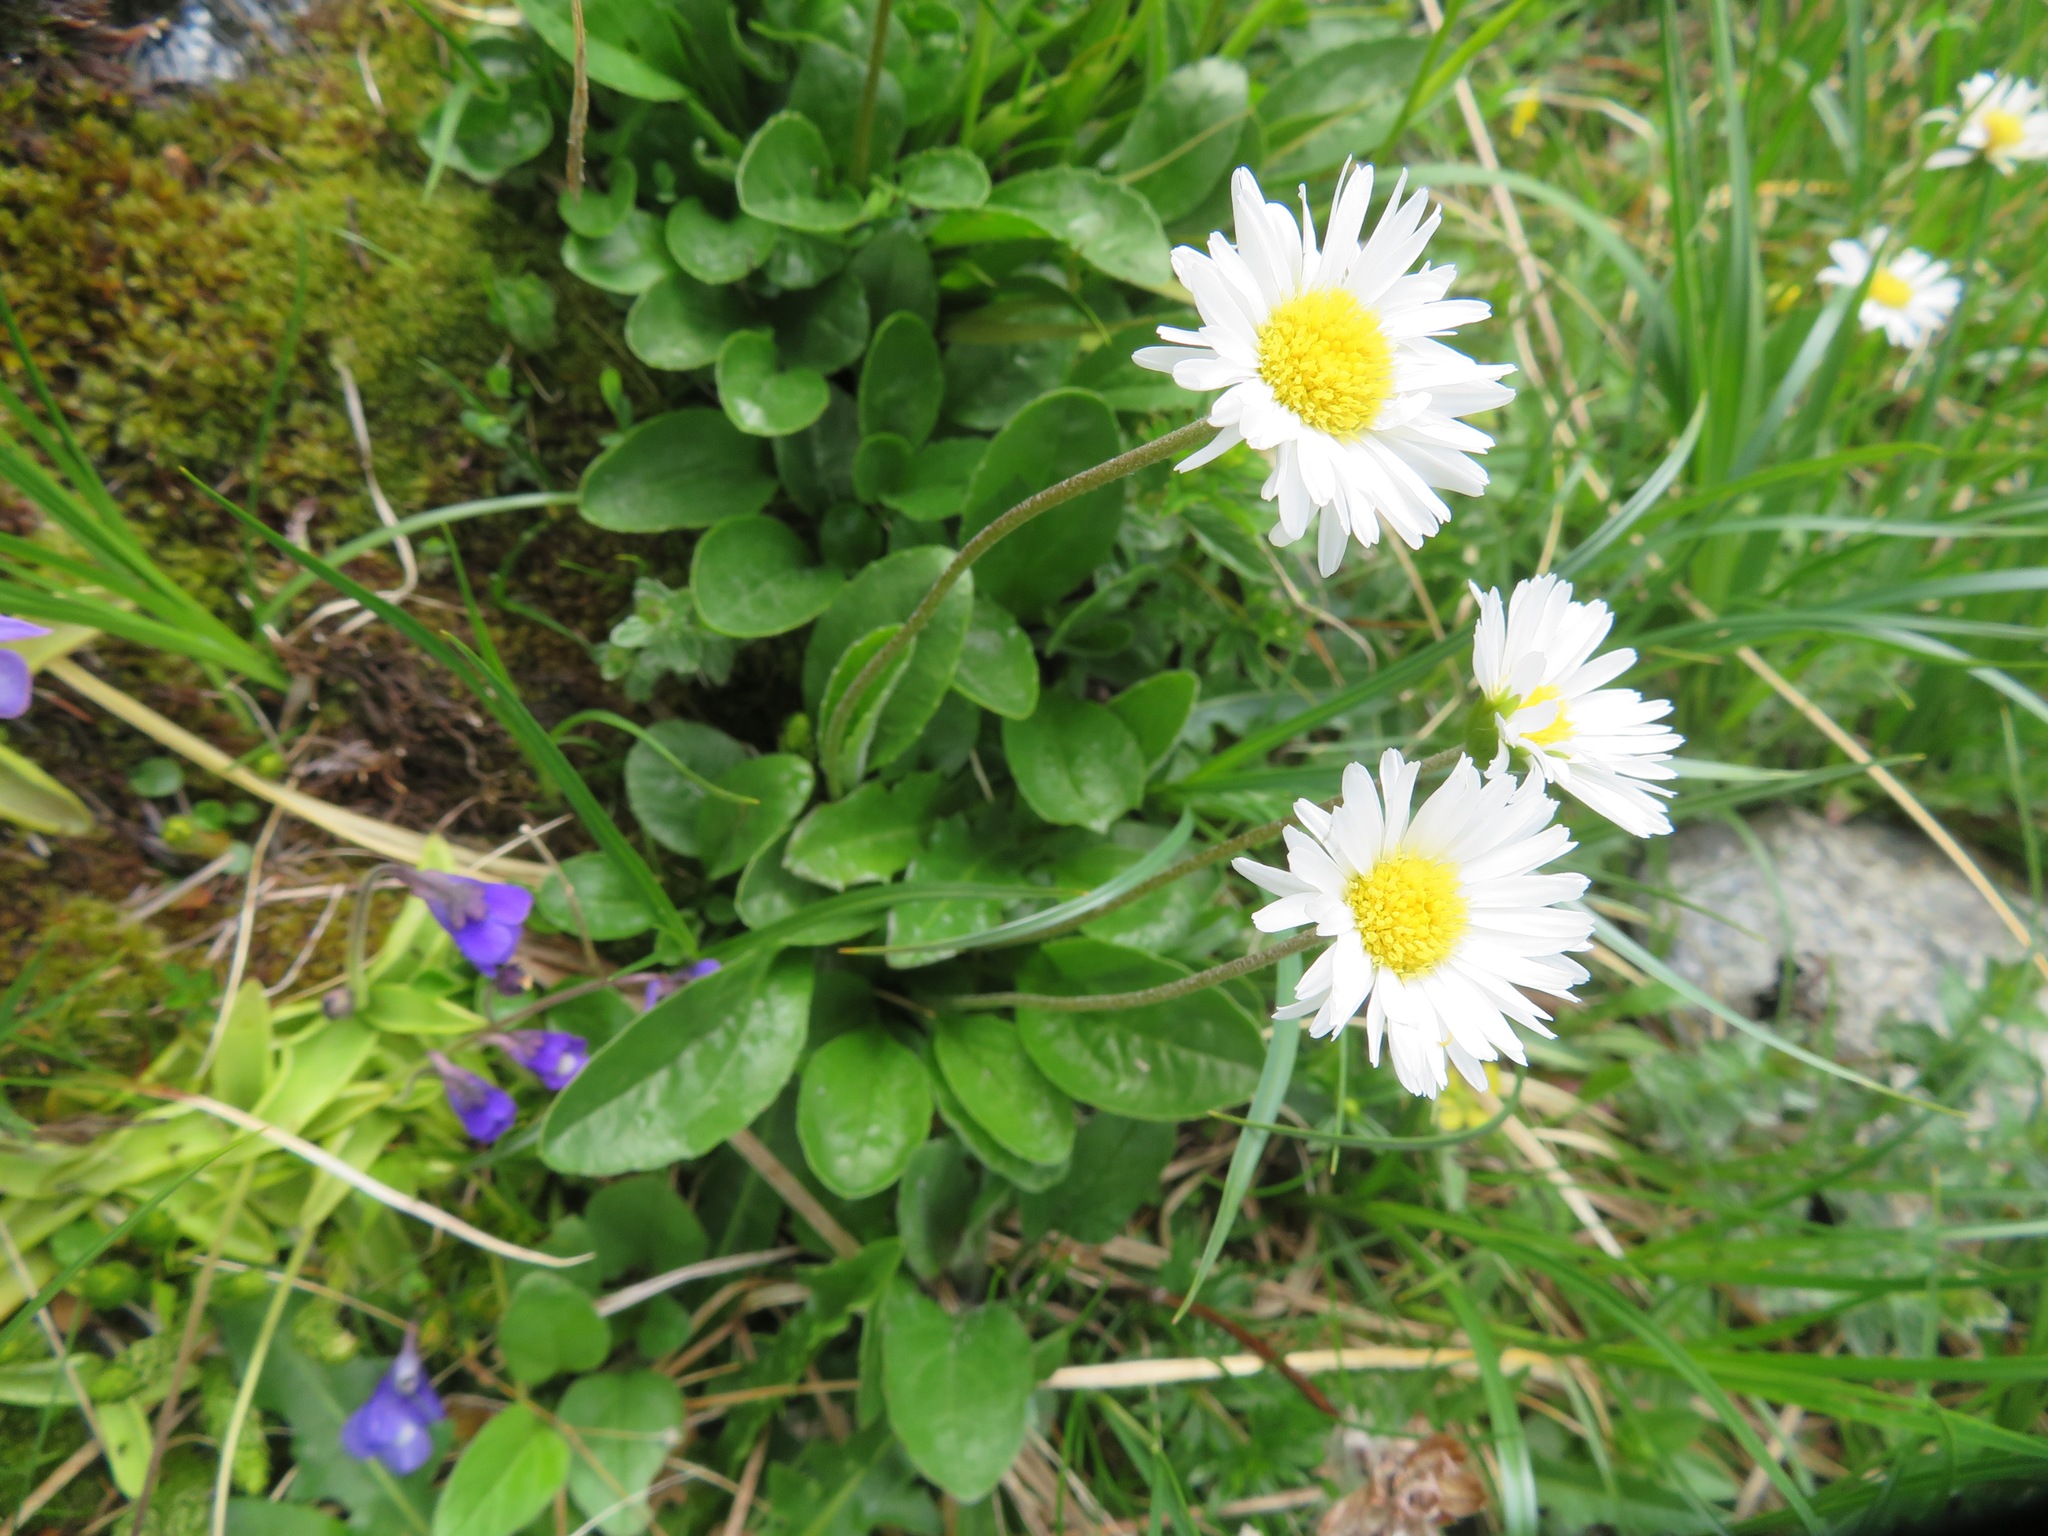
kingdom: Plantae
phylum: Tracheophyta
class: Magnoliopsida
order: Asterales
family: Asteraceae
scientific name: Asteraceae
